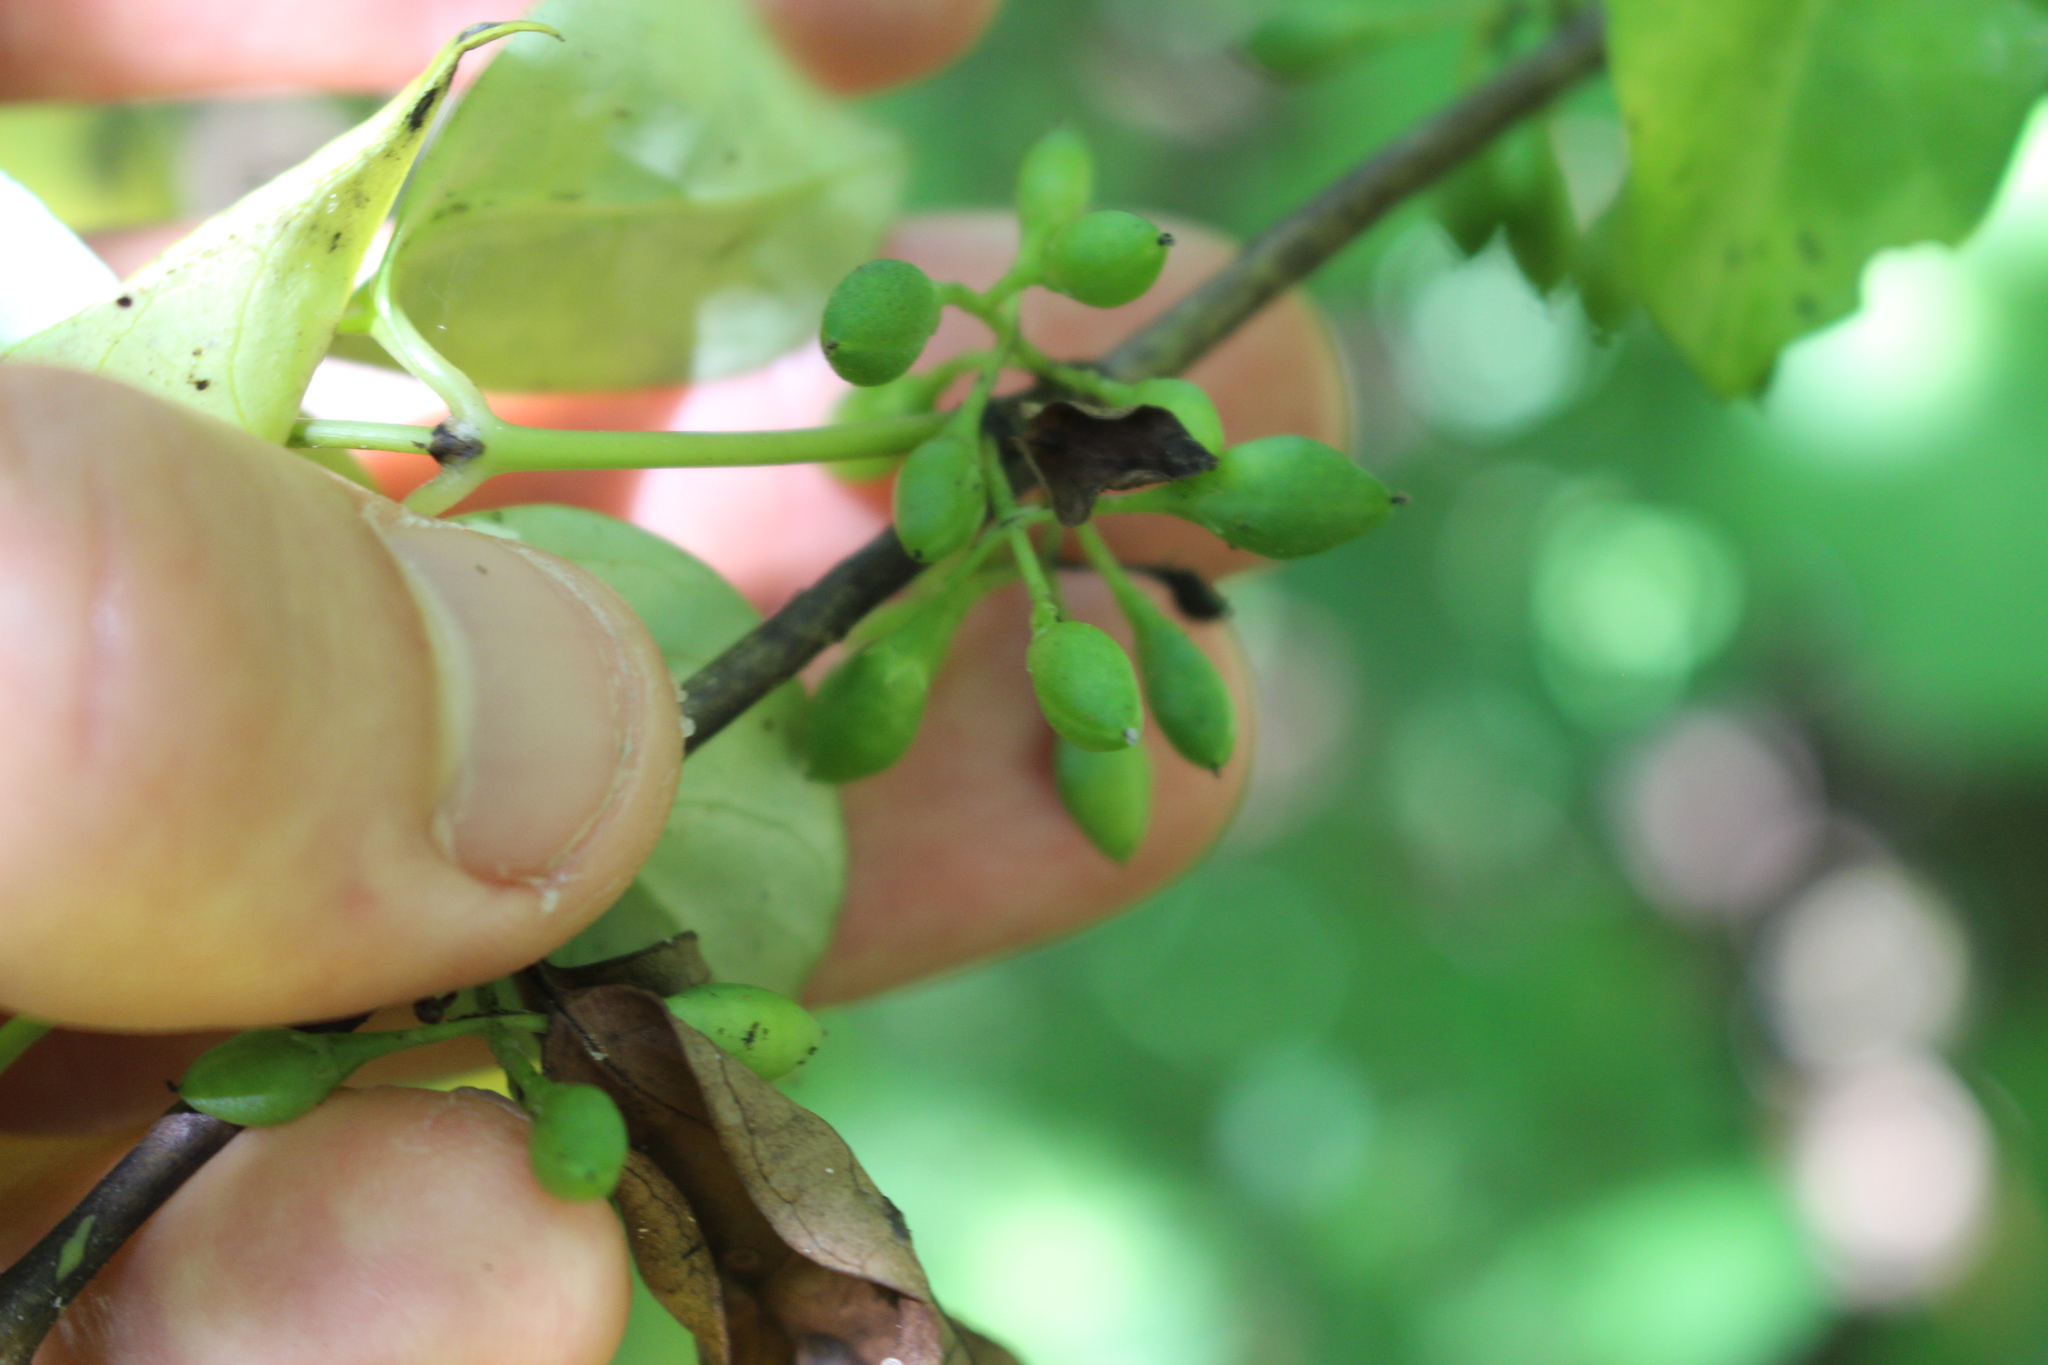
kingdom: Plantae
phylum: Tracheophyta
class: Magnoliopsida
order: Gentianales
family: Loganiaceae
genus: Geniostoma
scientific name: Geniostoma ligustrifolium
